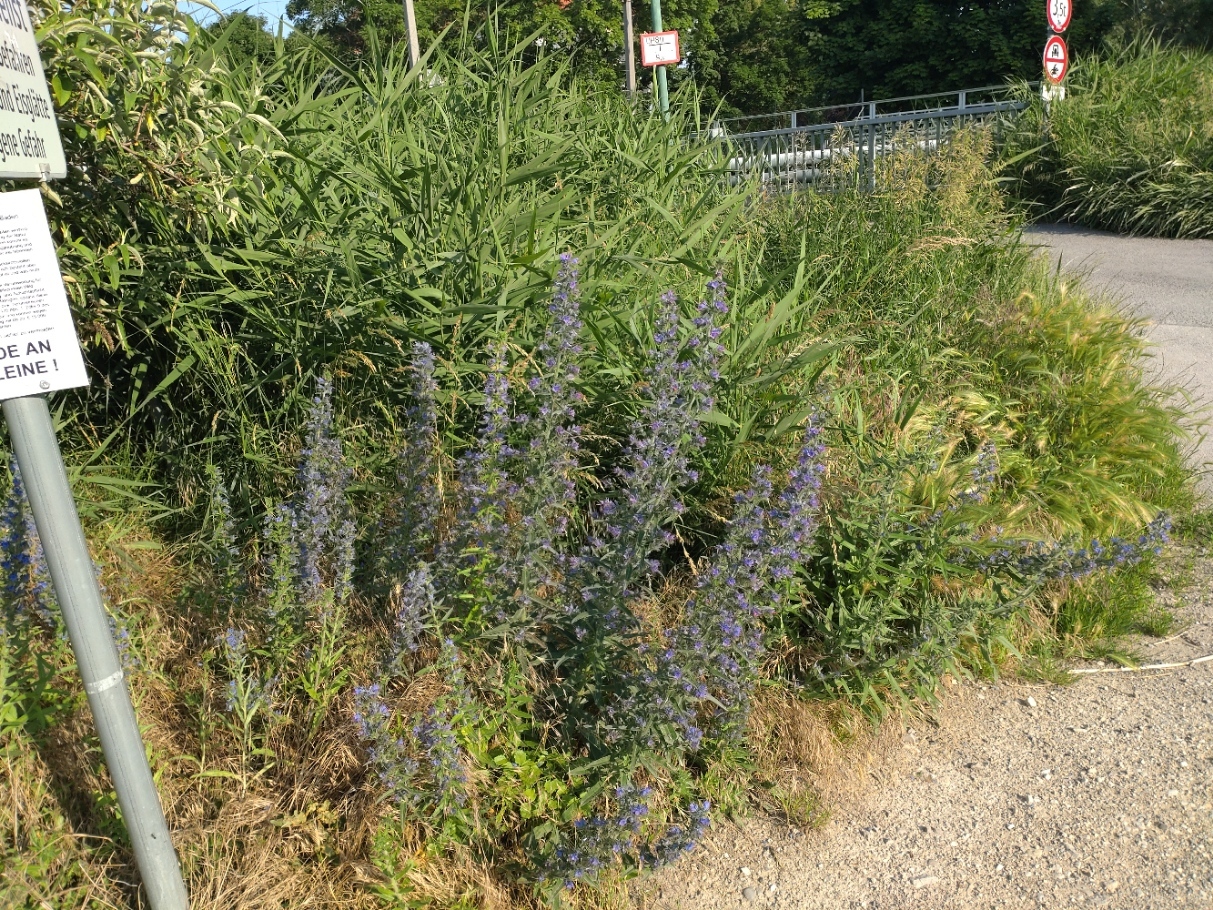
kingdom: Plantae
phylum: Tracheophyta
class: Magnoliopsida
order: Boraginales
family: Boraginaceae
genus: Echium
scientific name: Echium vulgare
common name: Common viper's bugloss
